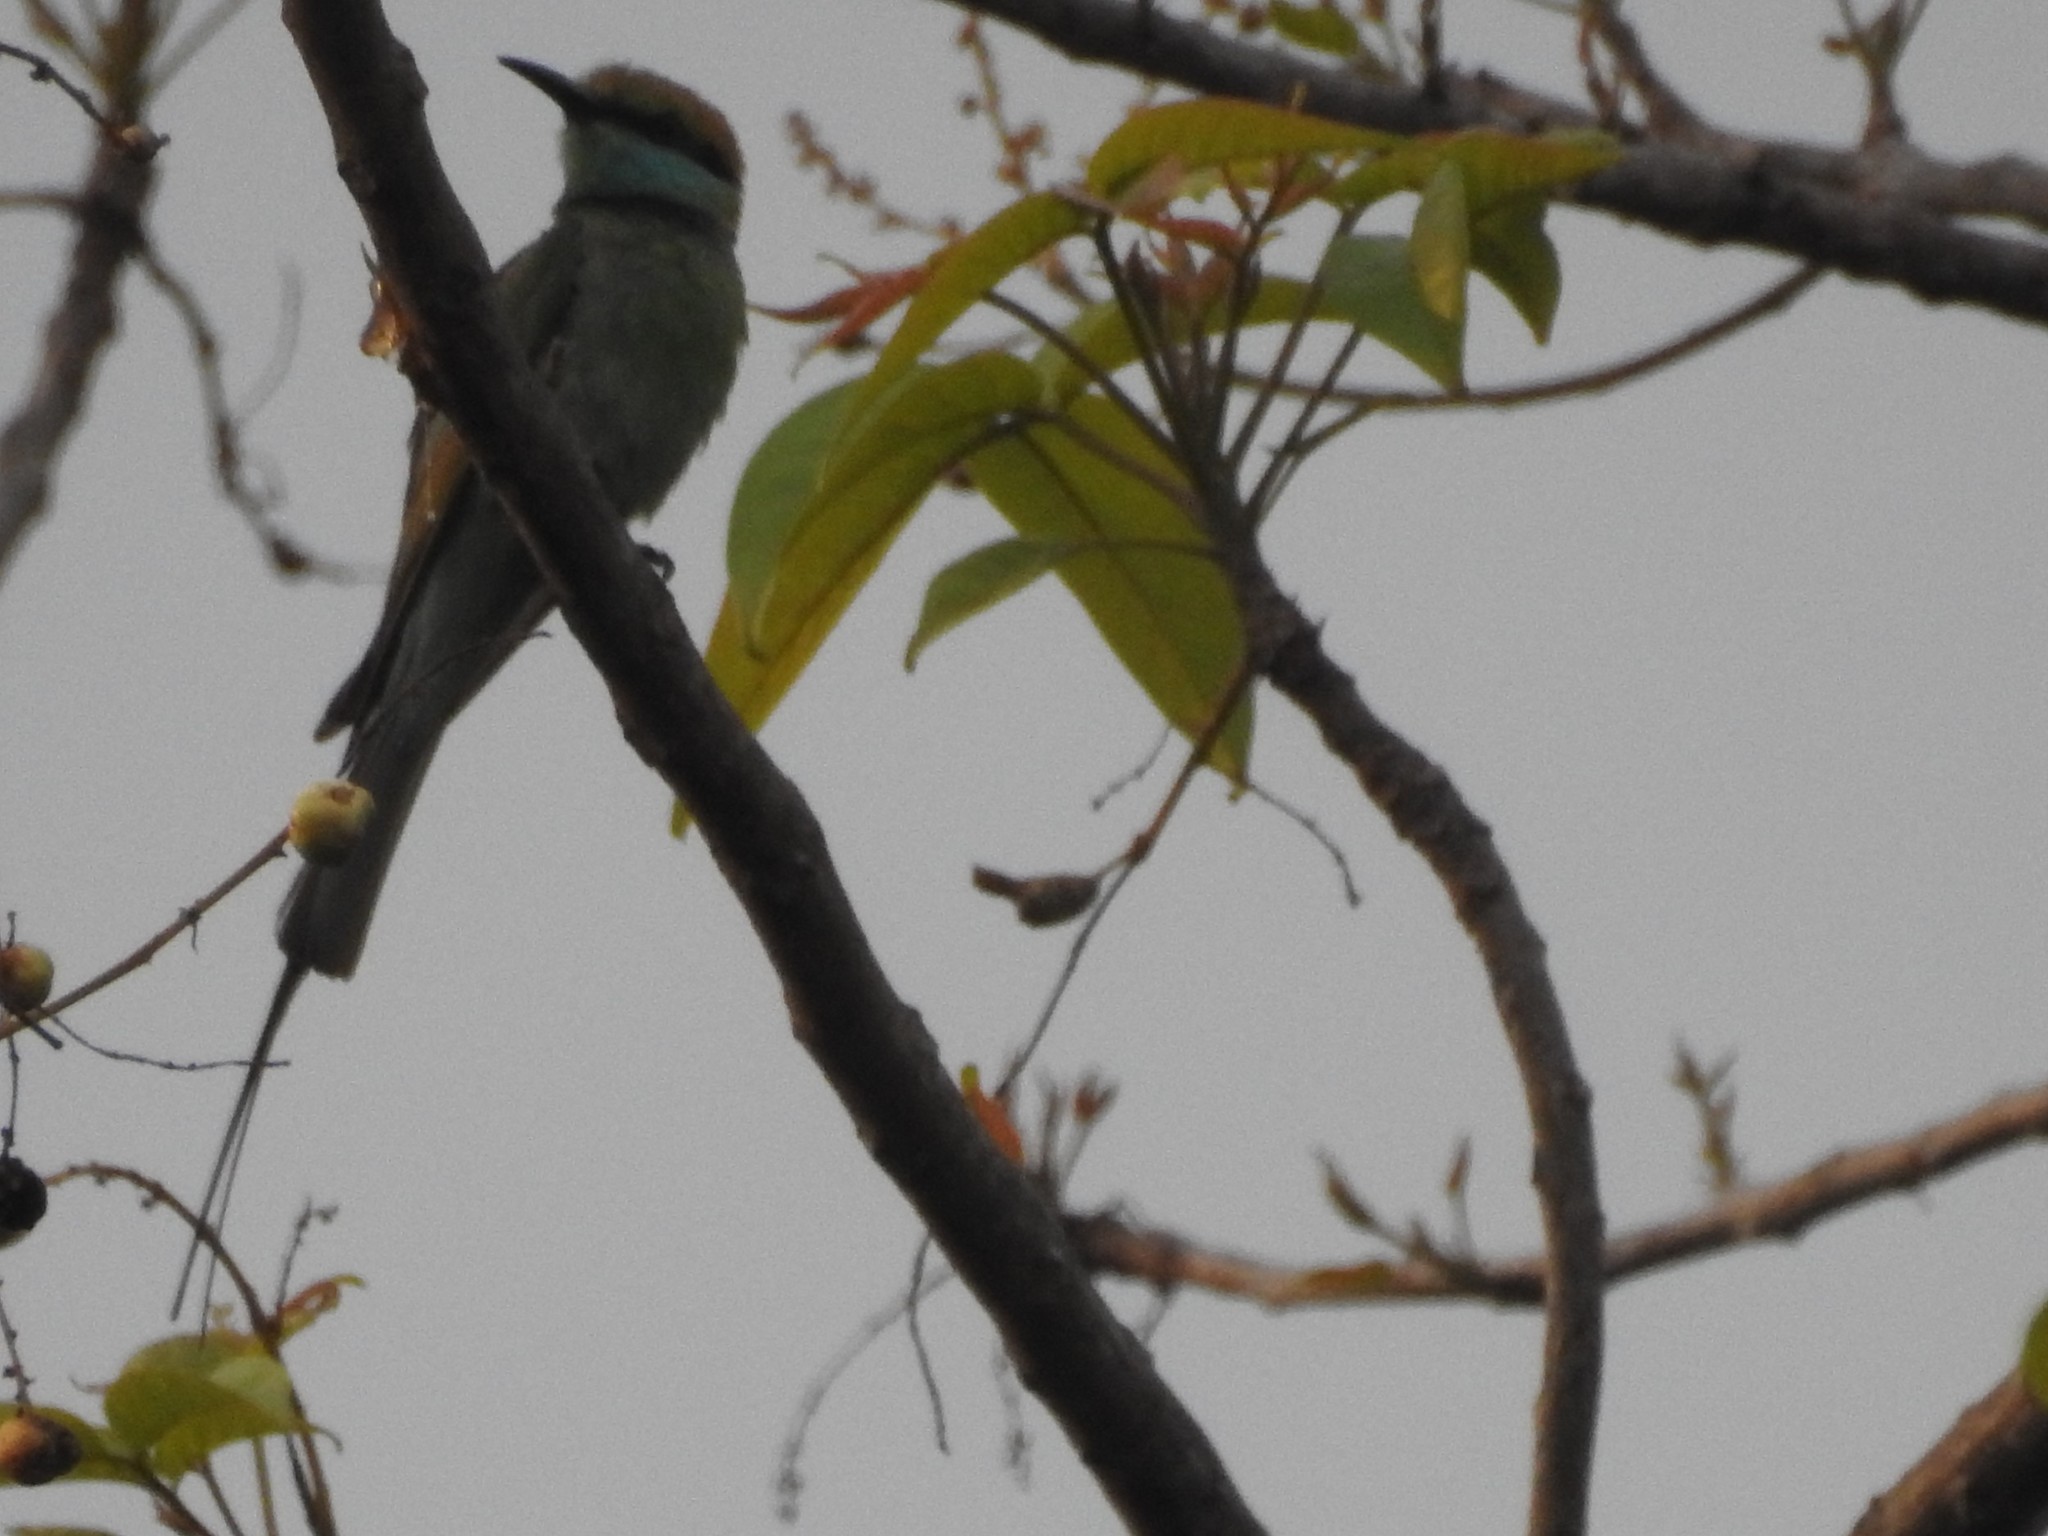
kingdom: Animalia
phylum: Chordata
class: Aves
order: Coraciiformes
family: Meropidae
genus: Merops
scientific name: Merops orientalis
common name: Green bee-eater
